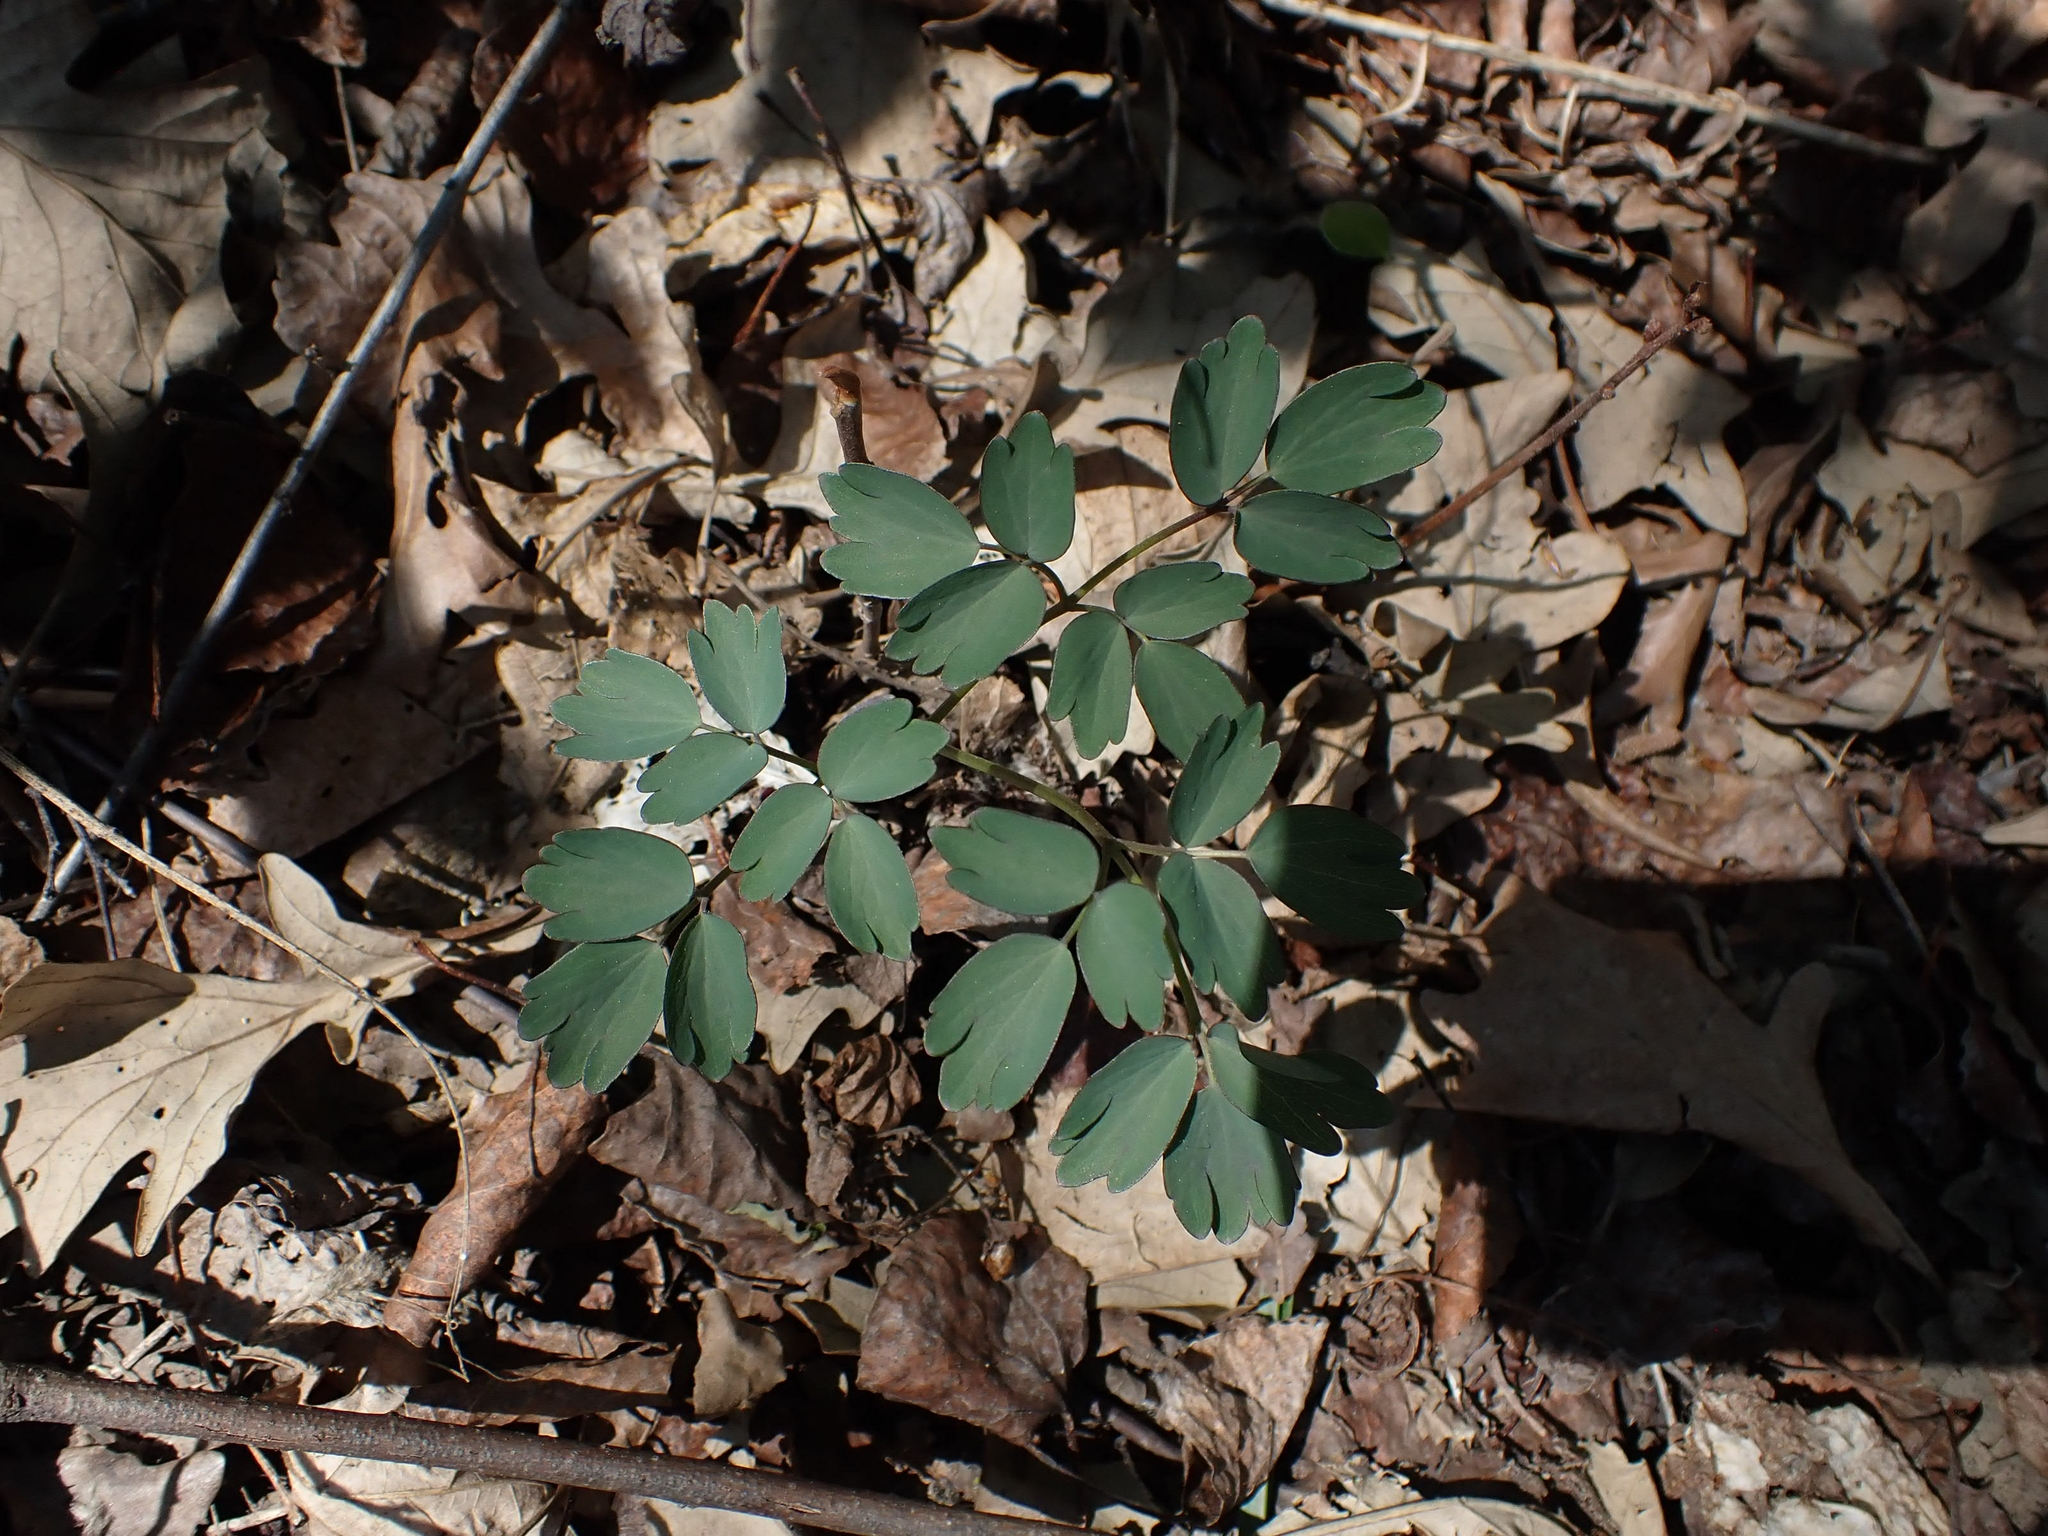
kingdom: Plantae
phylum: Tracheophyta
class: Magnoliopsida
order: Ranunculales
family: Ranunculaceae
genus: Thalictrum
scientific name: Thalictrum dasycarpum
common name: Purple meadow-rue
